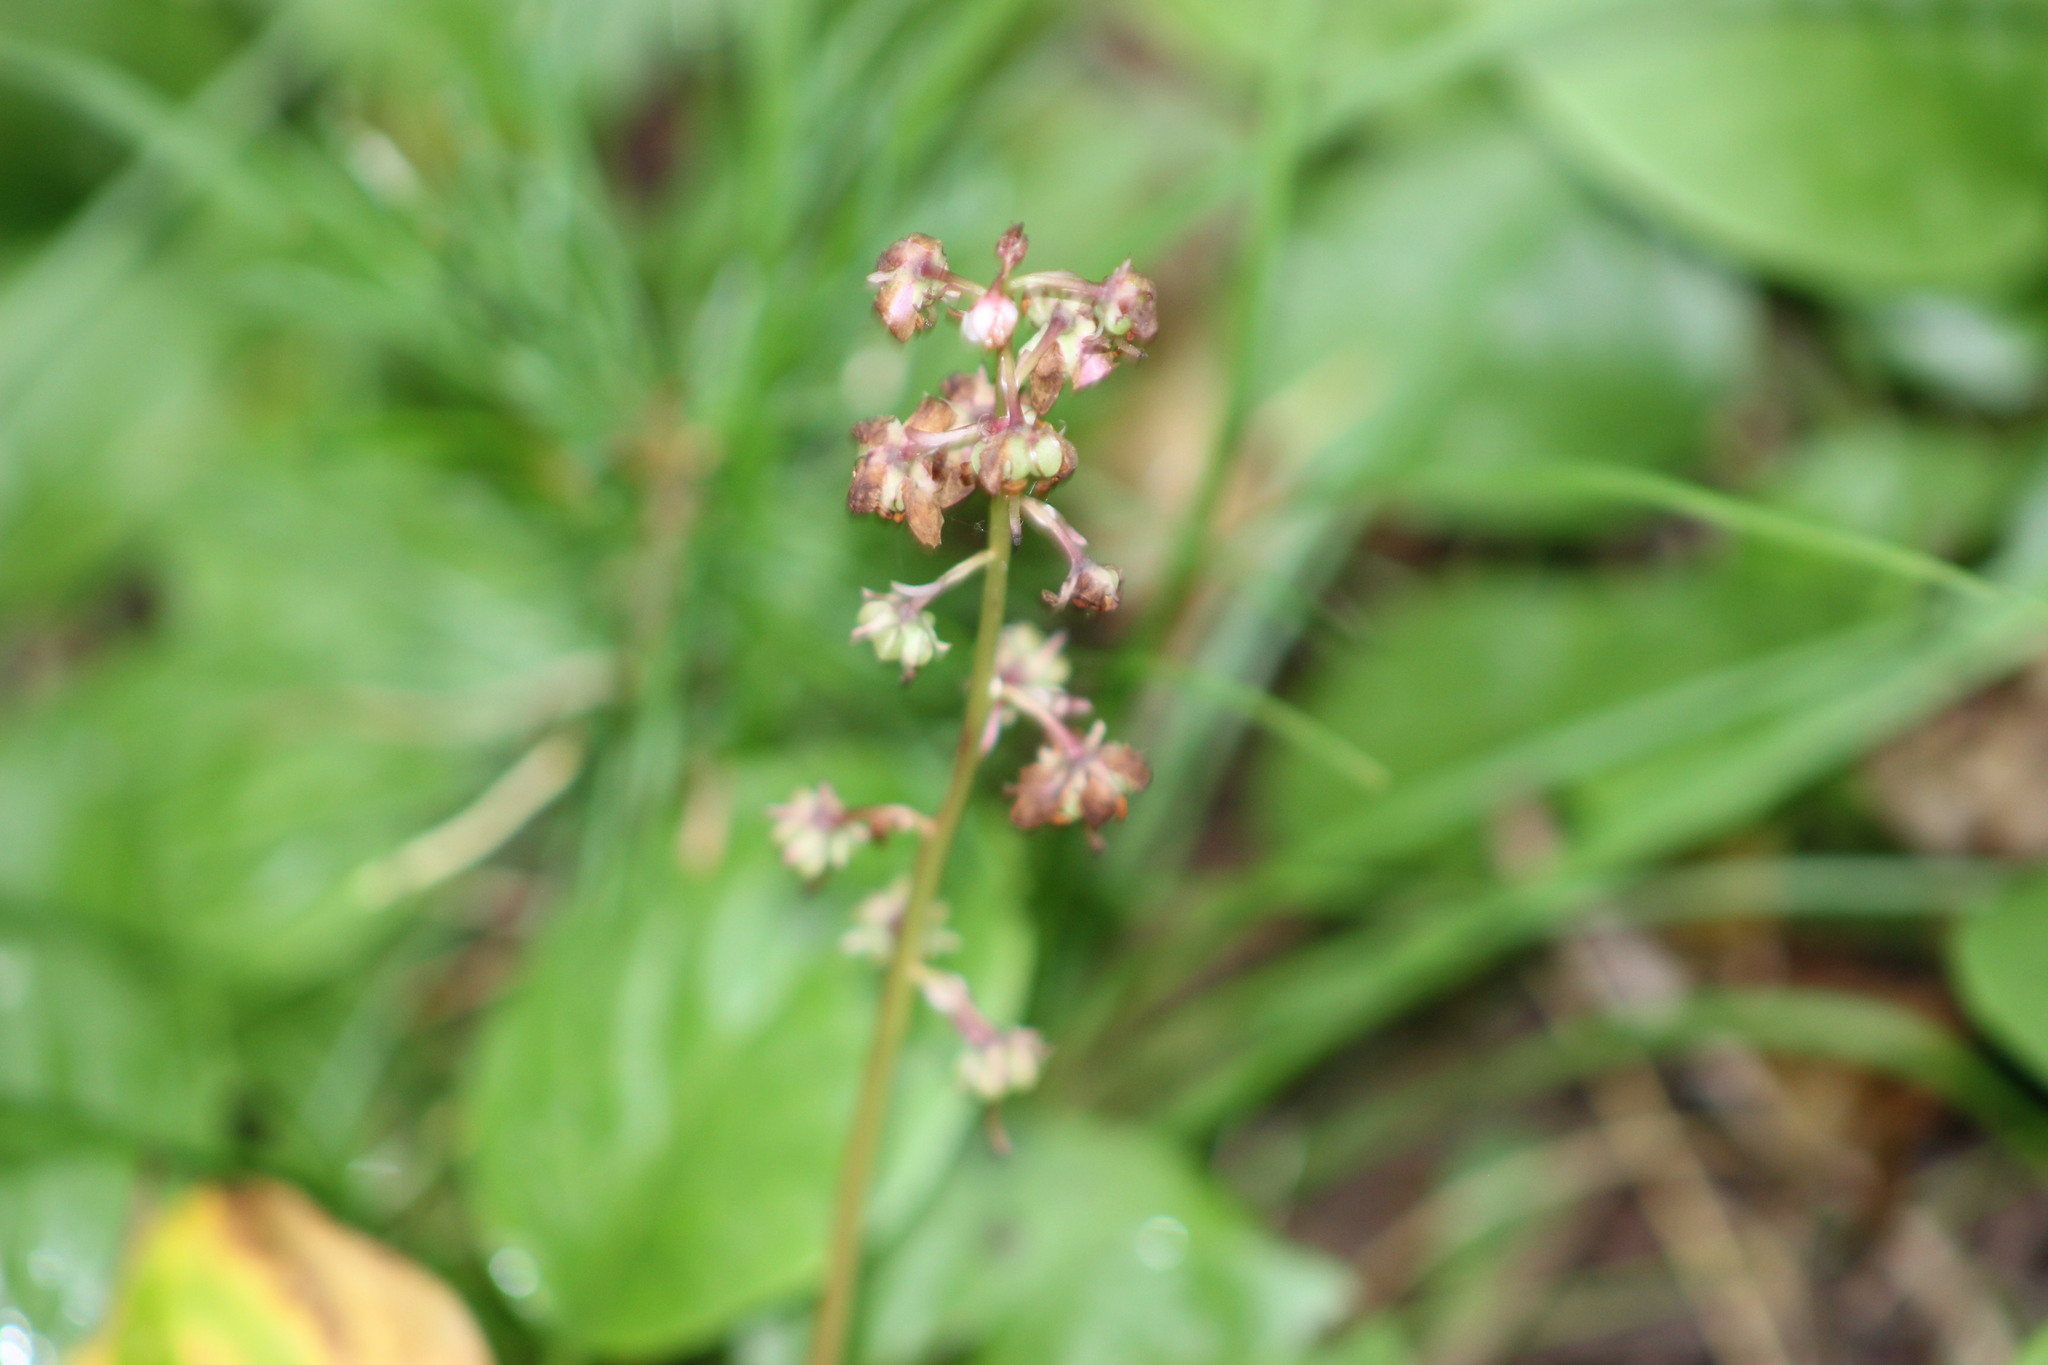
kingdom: Plantae
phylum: Tracheophyta
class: Magnoliopsida
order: Ericales
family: Ericaceae
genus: Pyrola
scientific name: Pyrola asarifolia
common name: Bog wintergreen
